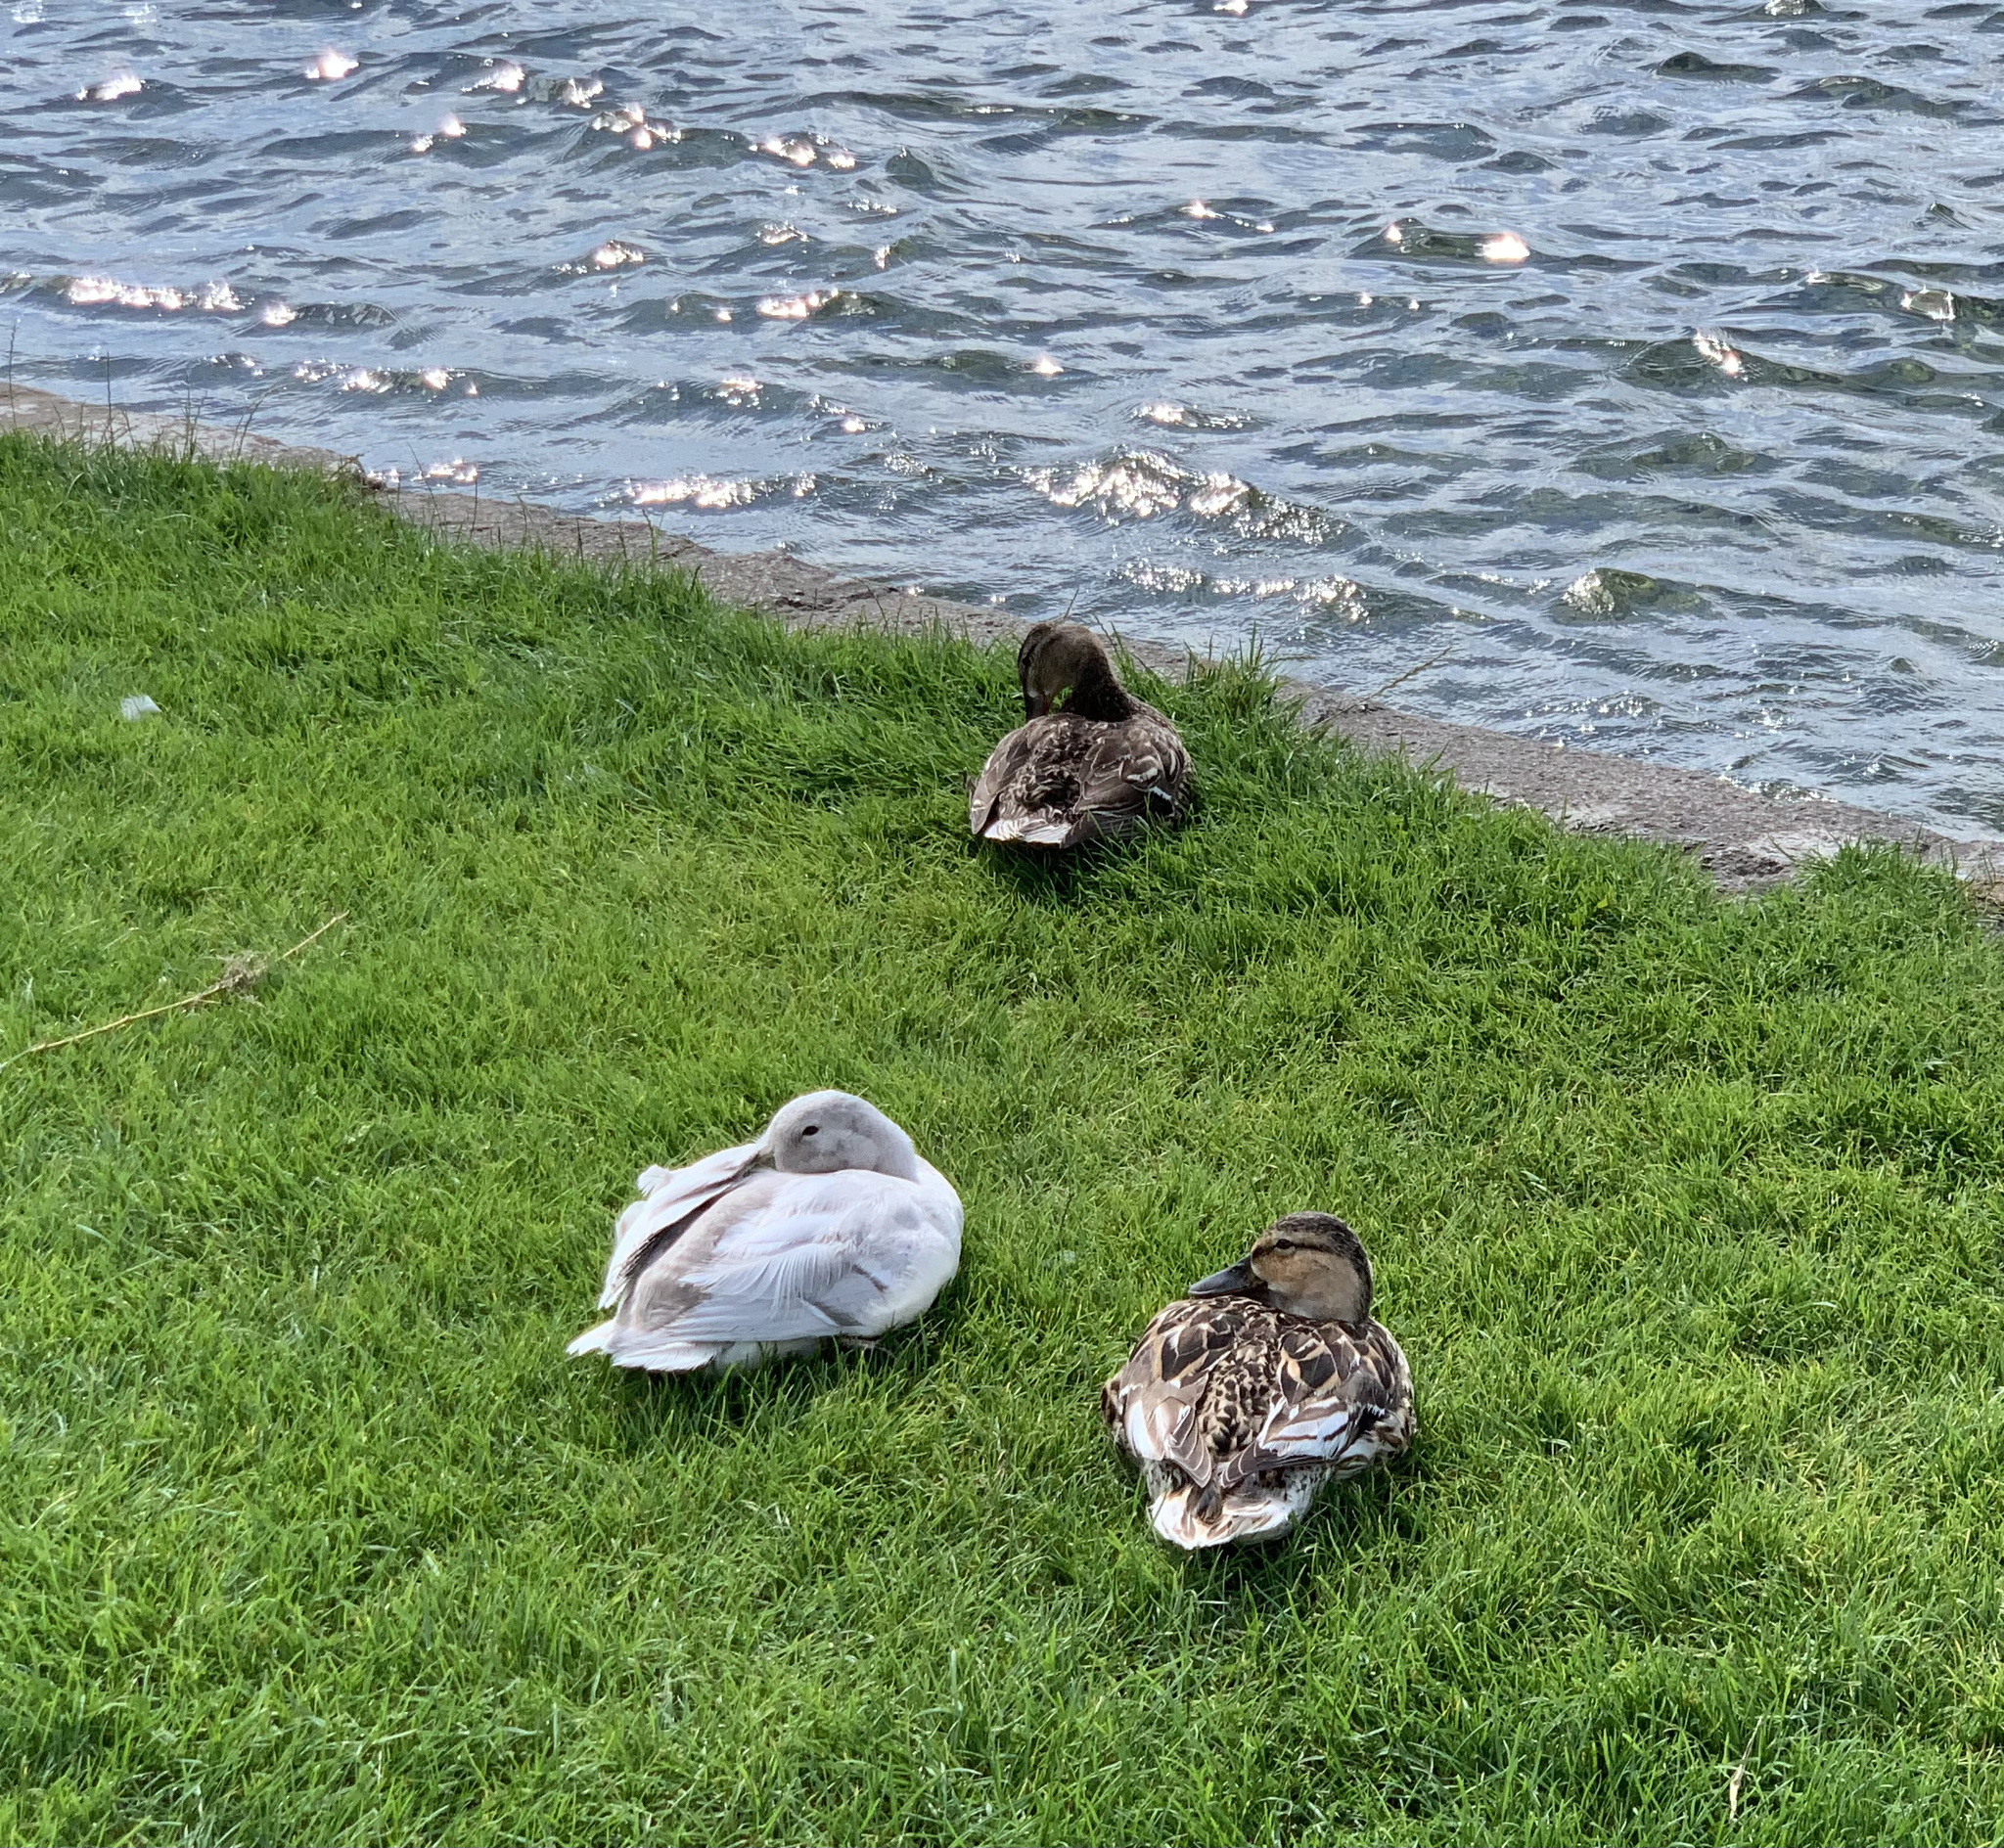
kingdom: Animalia
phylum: Chordata
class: Aves
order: Anseriformes
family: Anatidae
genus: Anas
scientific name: Anas platyrhynchos
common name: Mallard
